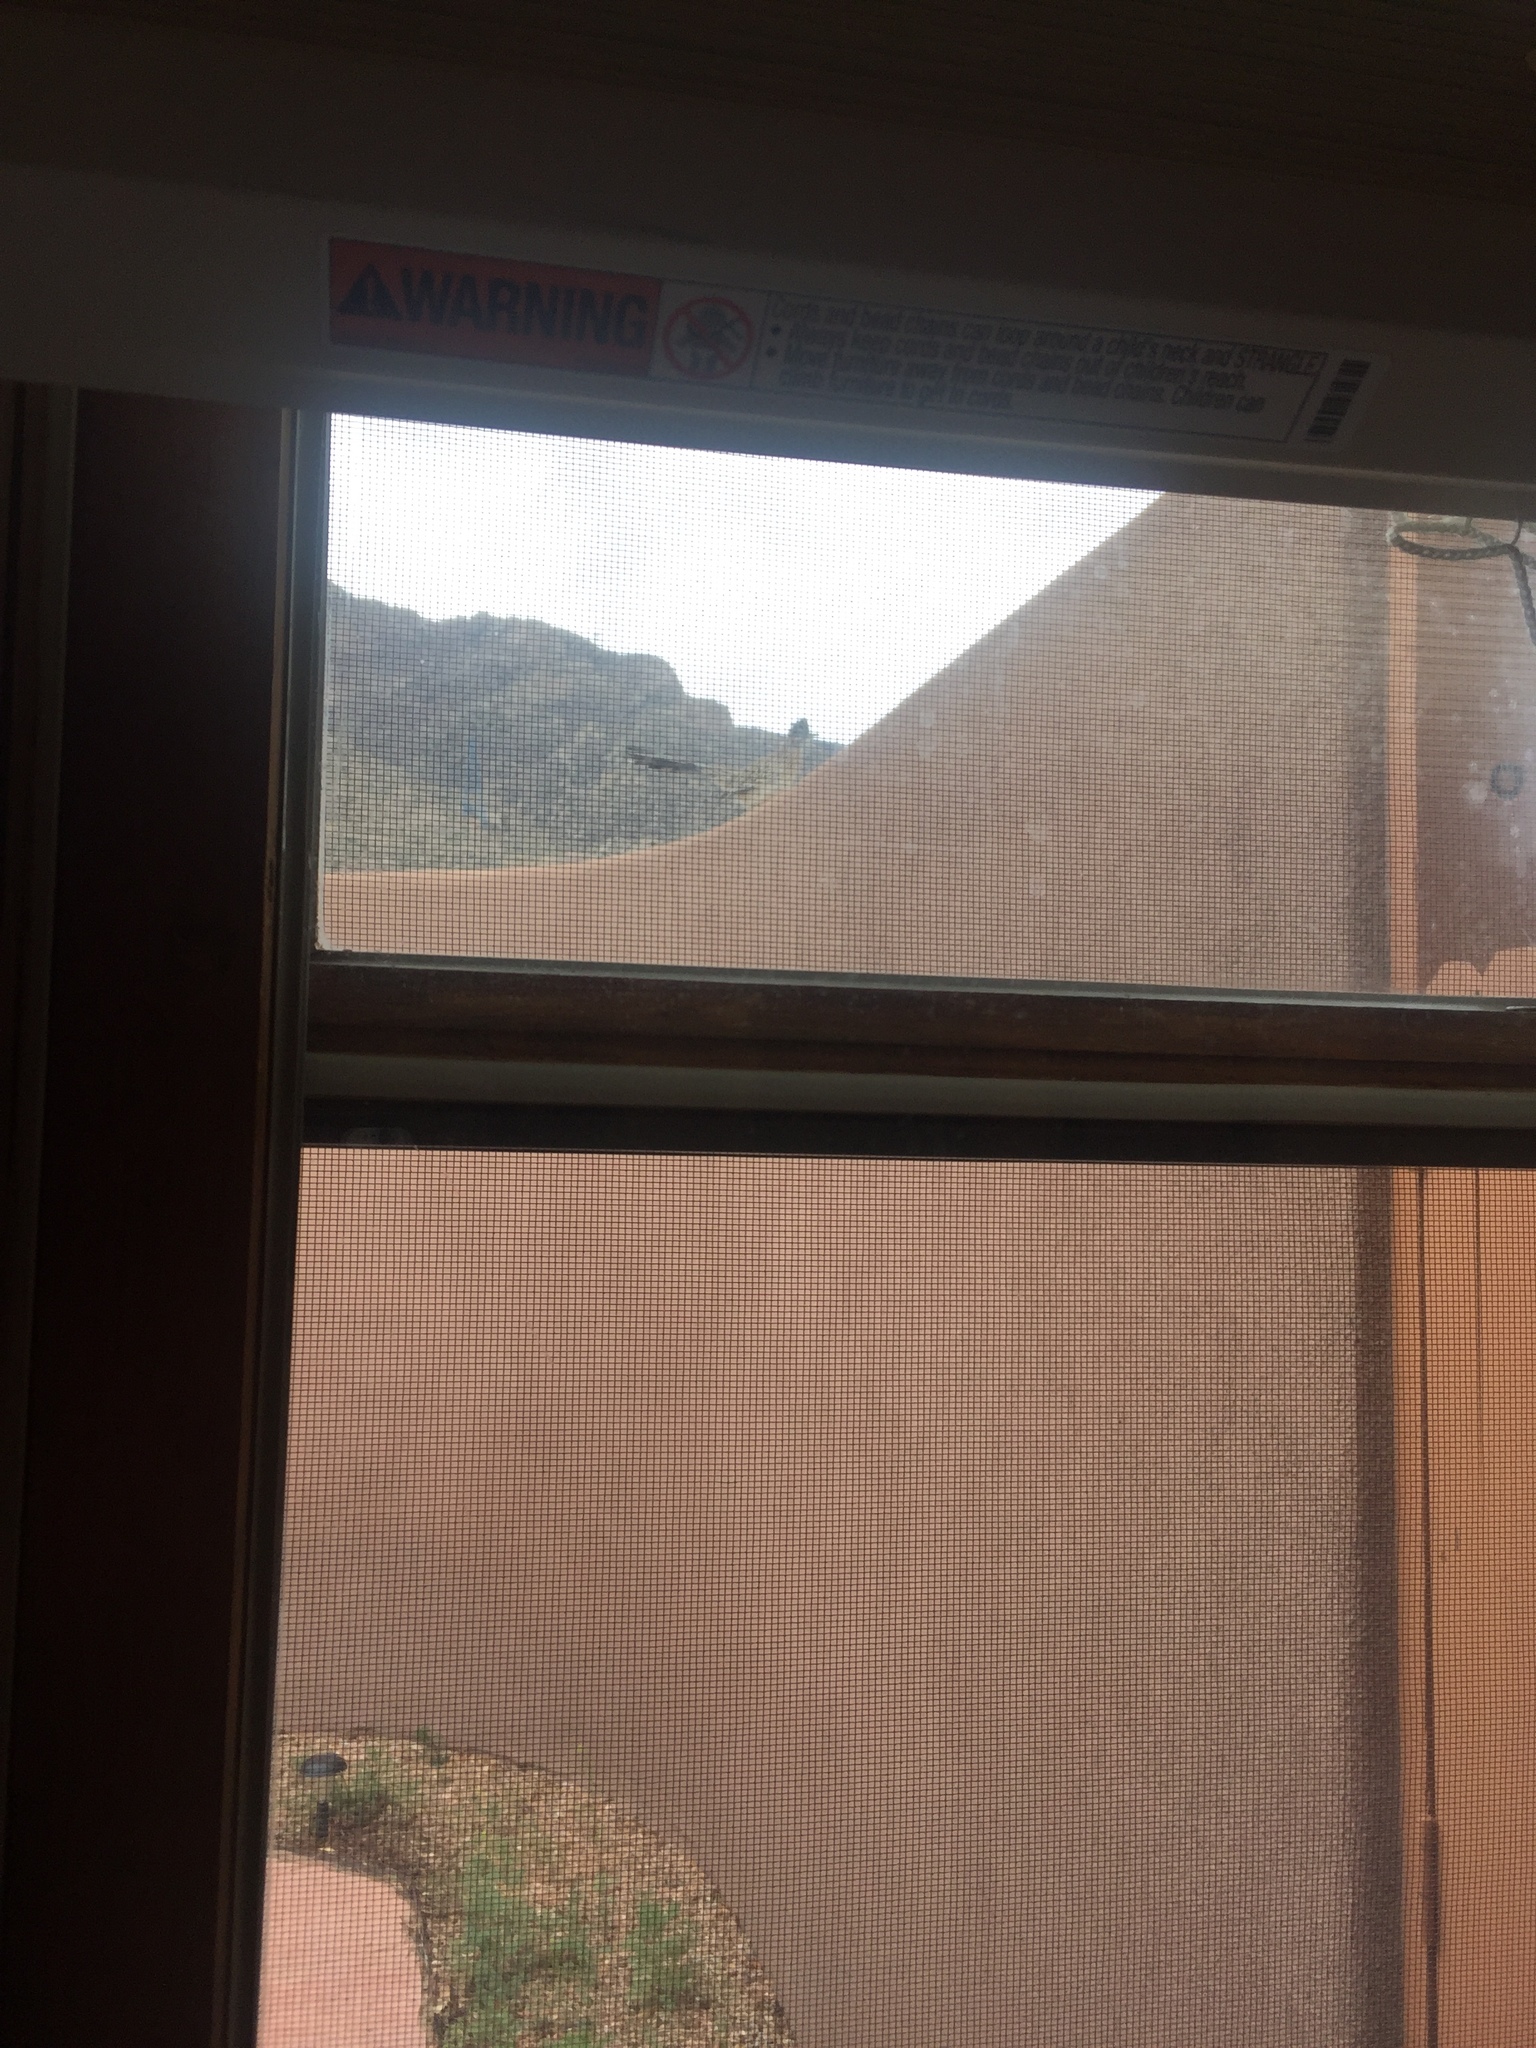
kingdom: Animalia
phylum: Chordata
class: Aves
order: Cuculiformes
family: Cuculidae
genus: Geococcyx
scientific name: Geococcyx californianus
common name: Greater roadrunner
